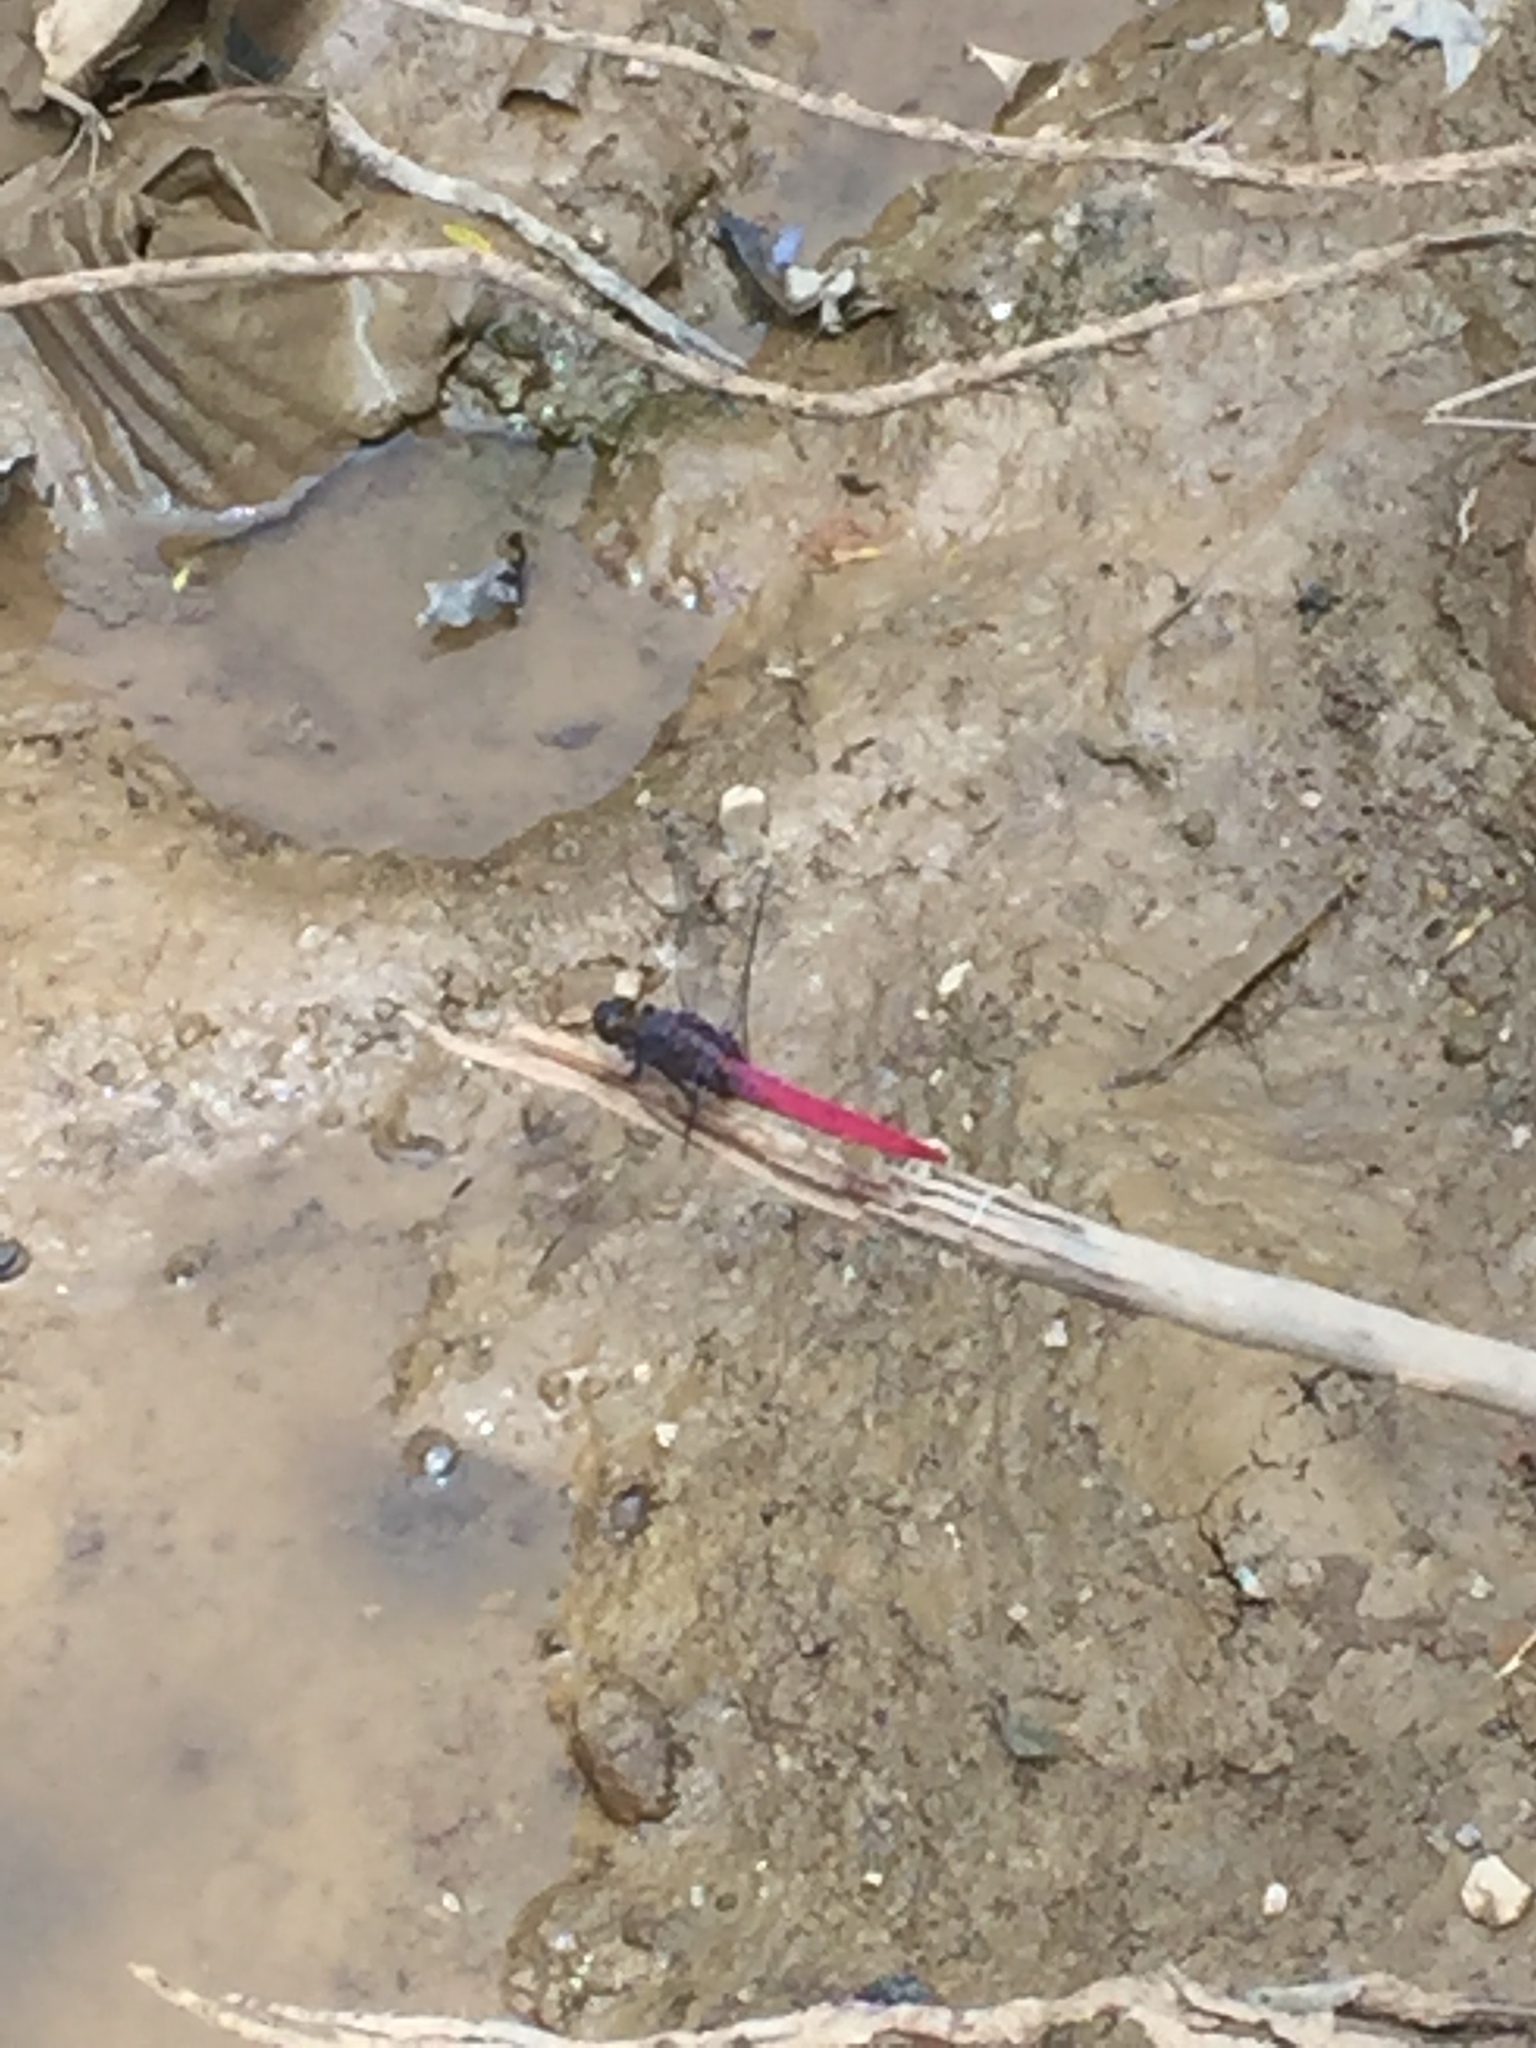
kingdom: Animalia
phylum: Arthropoda
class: Insecta
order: Odonata
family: Libellulidae
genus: Orthetrum
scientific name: Orthetrum pruinosum
